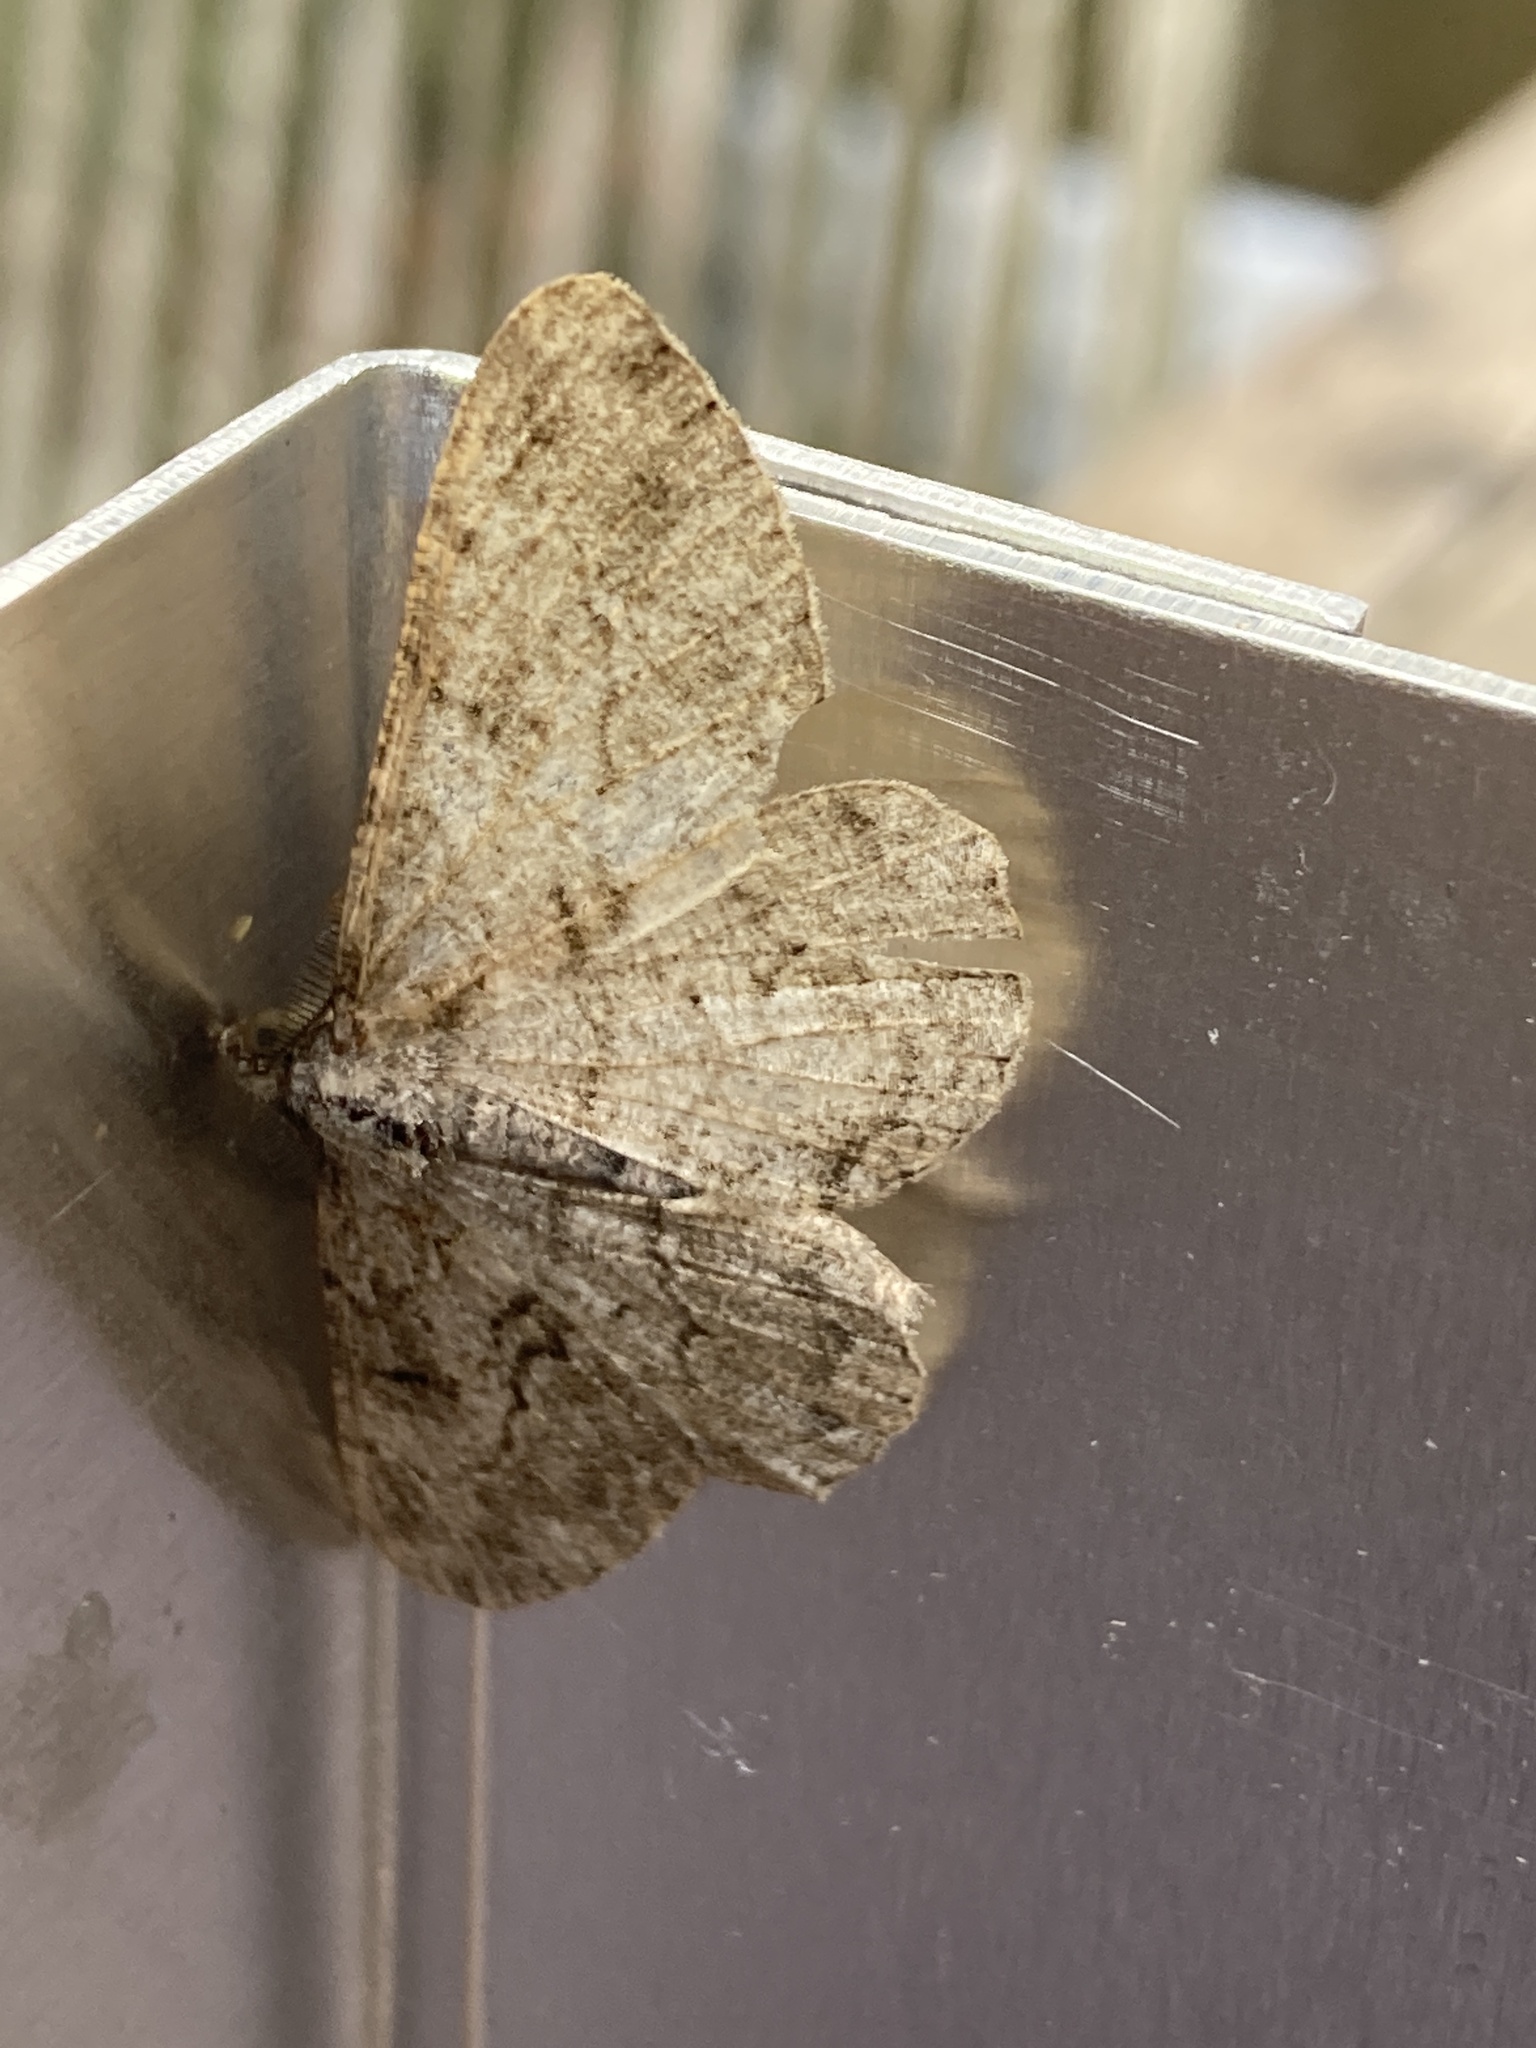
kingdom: Animalia
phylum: Arthropoda
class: Insecta
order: Lepidoptera
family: Geometridae
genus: Peribatodes
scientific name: Peribatodes rhomboidaria
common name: Willow beauty
